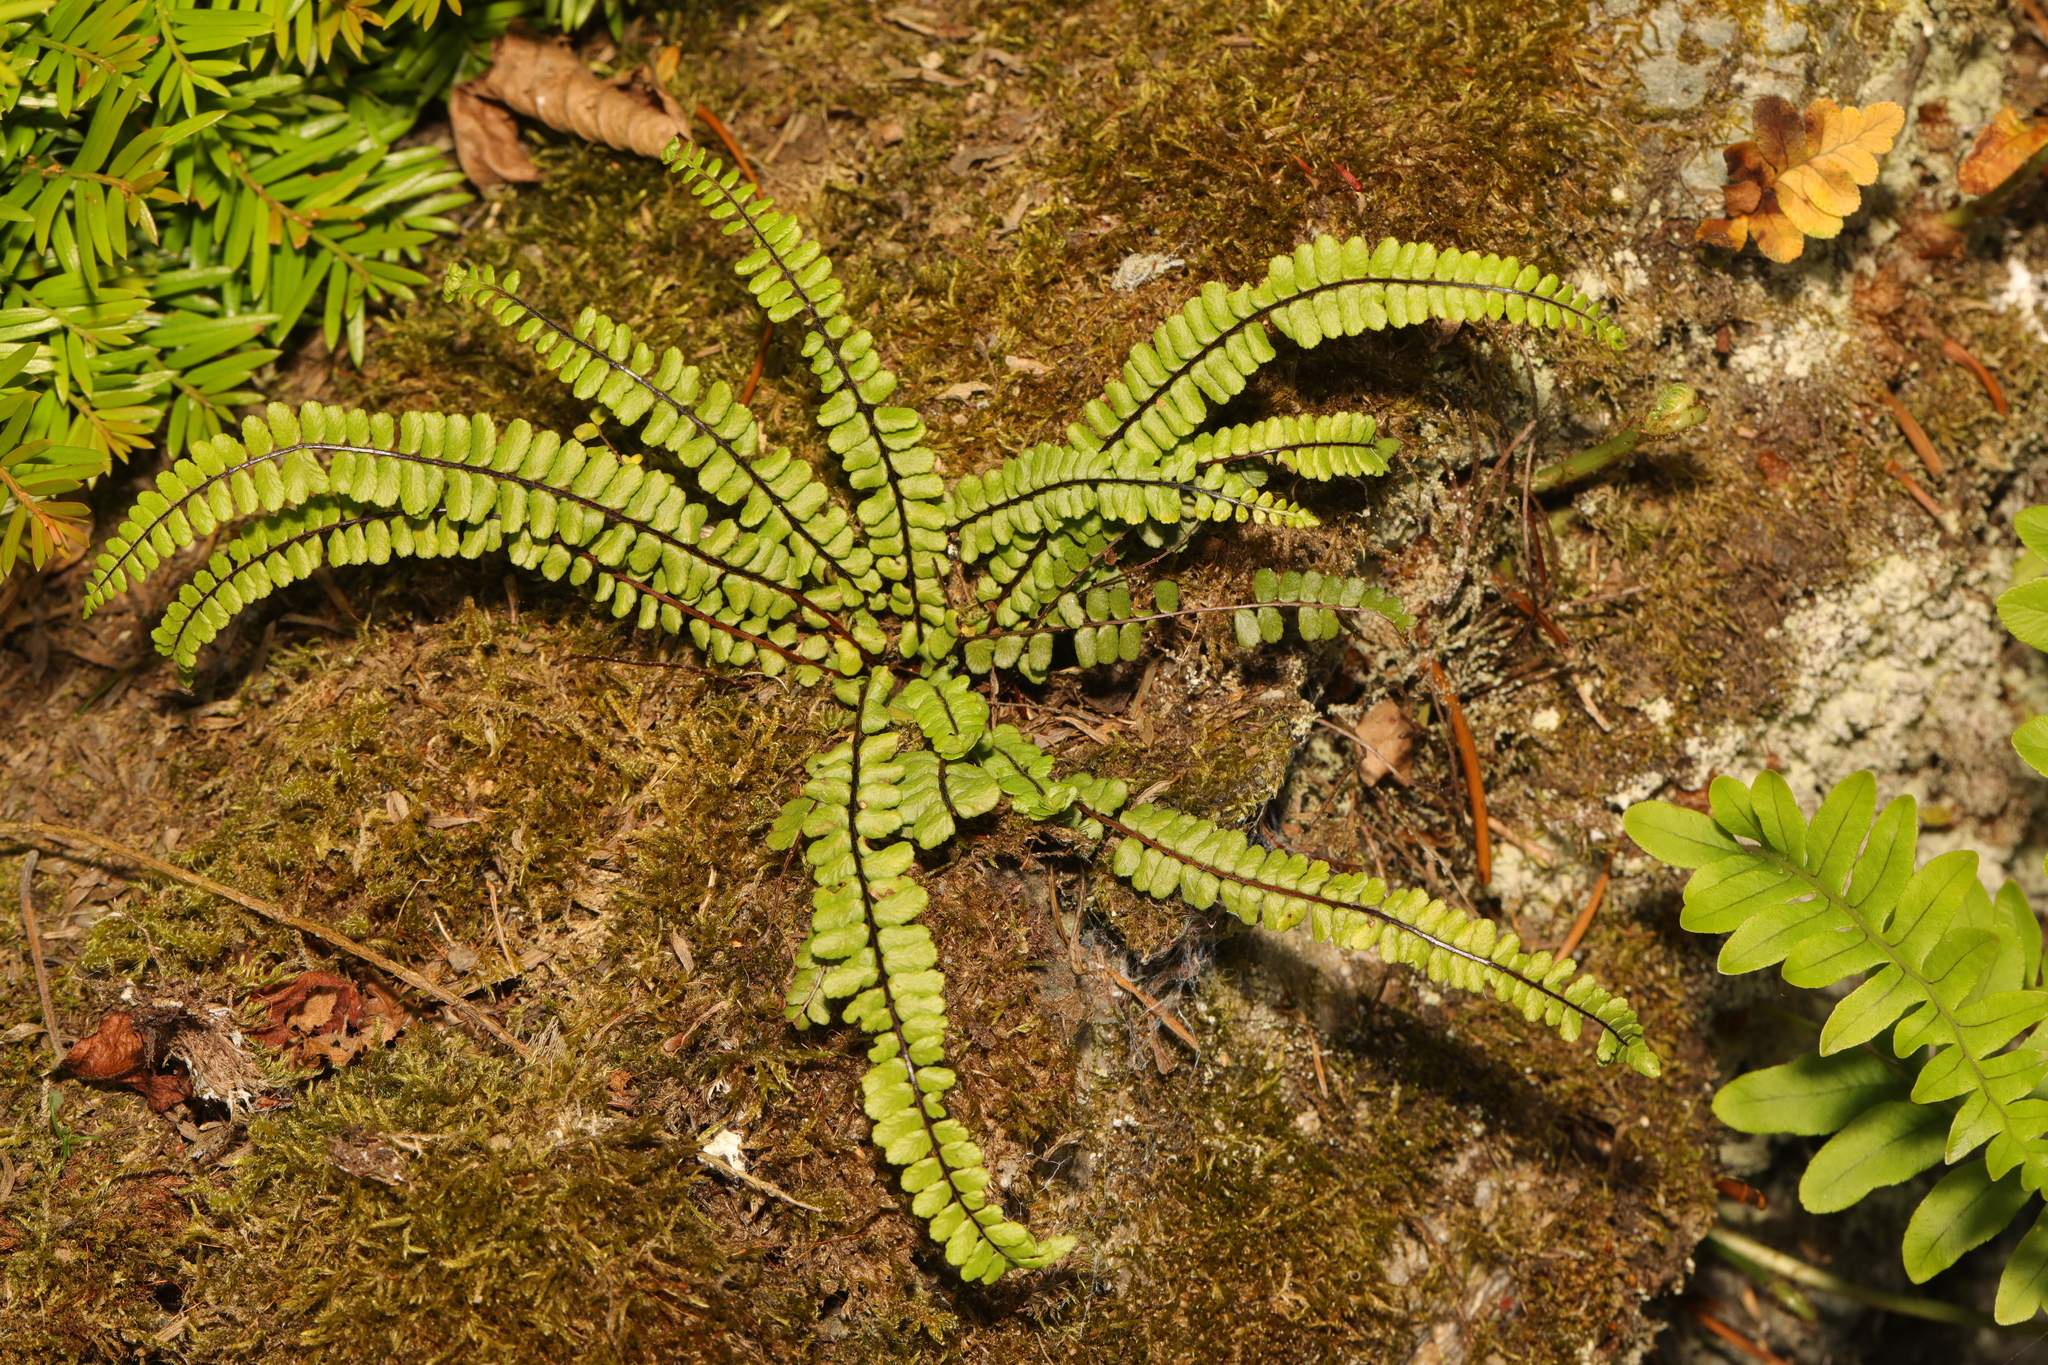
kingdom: Plantae
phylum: Tracheophyta
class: Polypodiopsida
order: Polypodiales
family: Aspleniaceae
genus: Asplenium
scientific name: Asplenium trichomanes
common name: Maidenhair spleenwort
